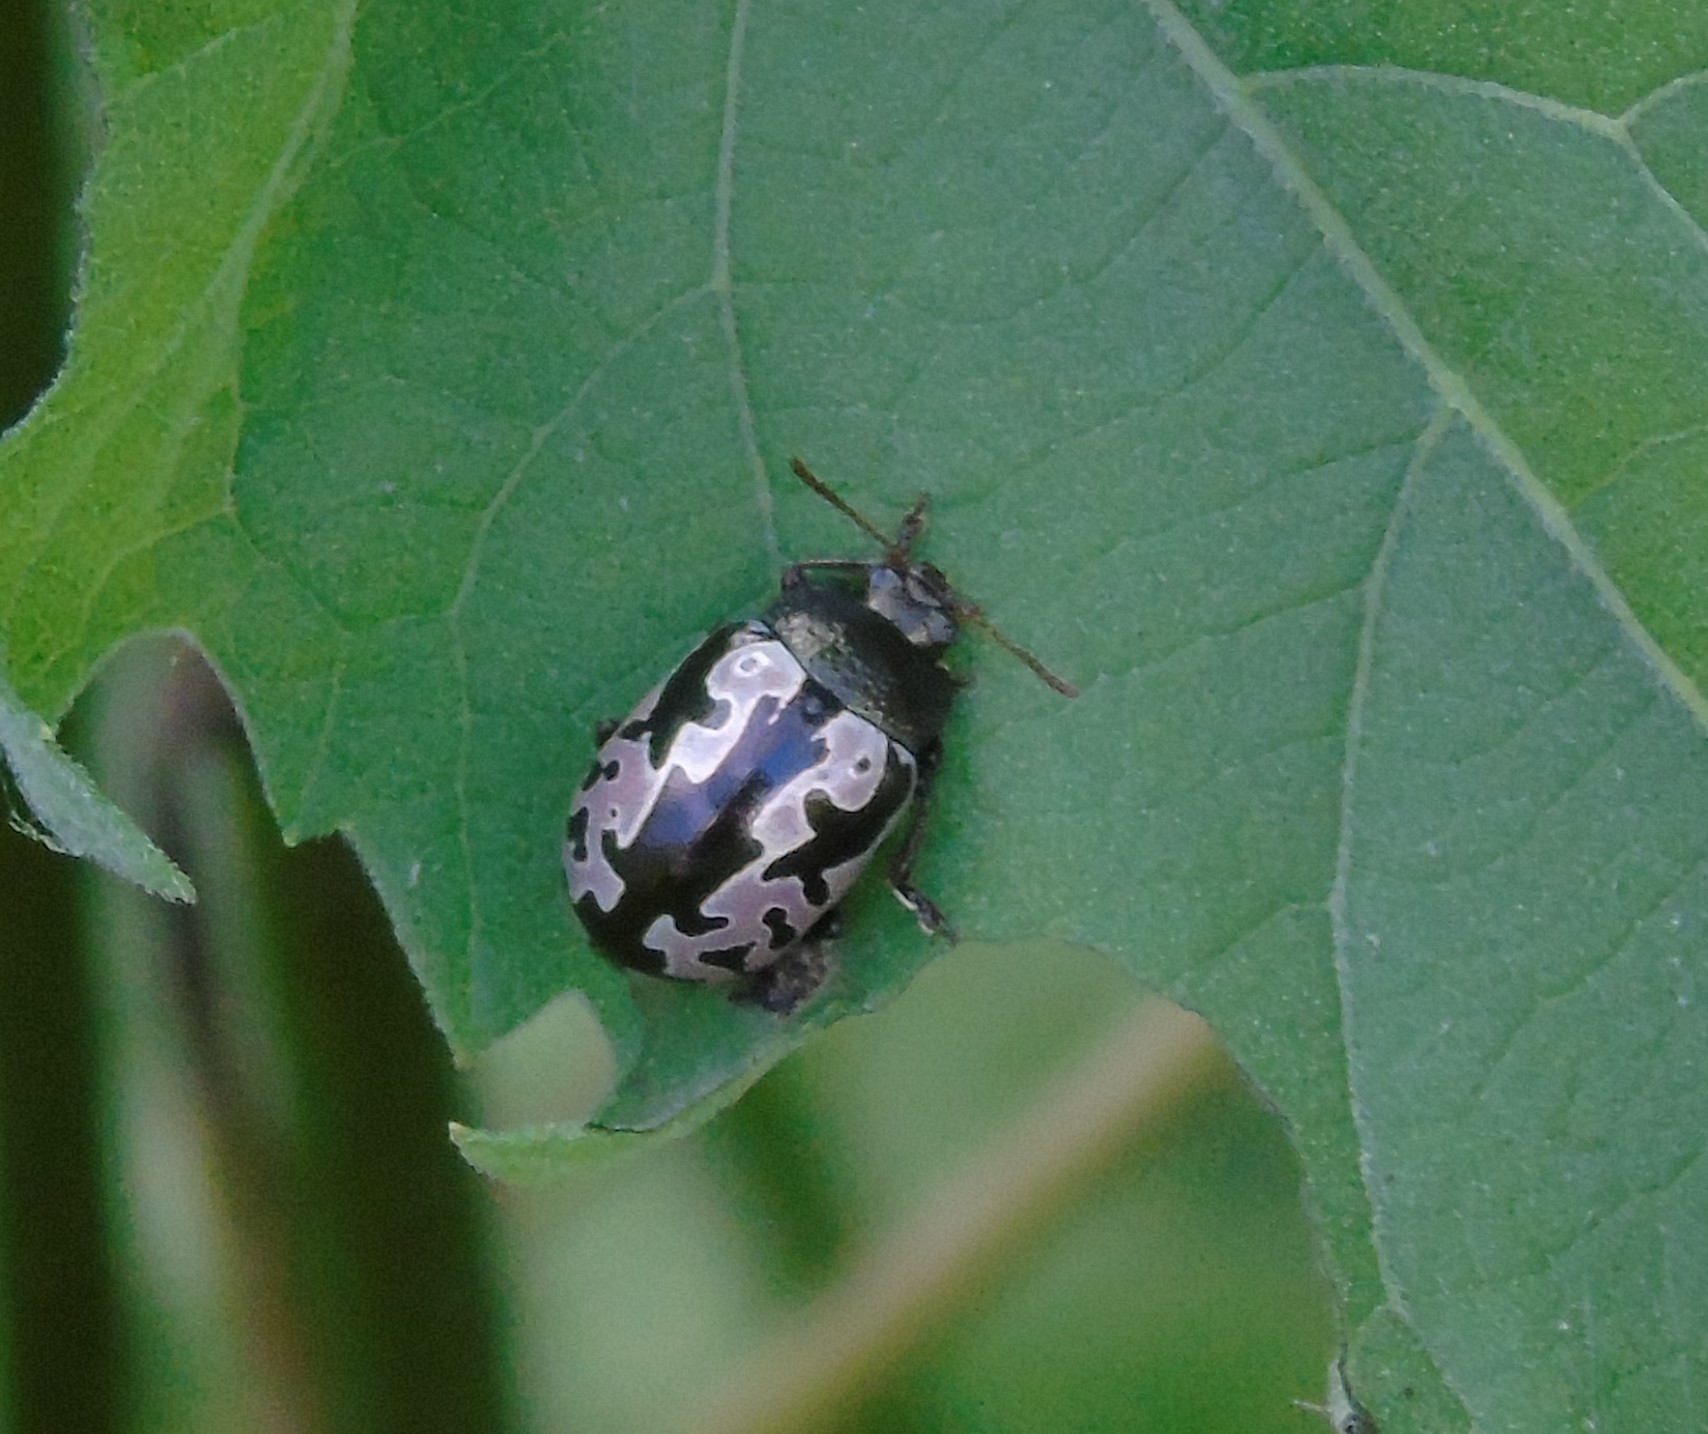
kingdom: Animalia
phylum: Arthropoda
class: Insecta
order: Coleoptera
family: Chrysomelidae
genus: Calligrapha
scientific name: Calligrapha intermedia
